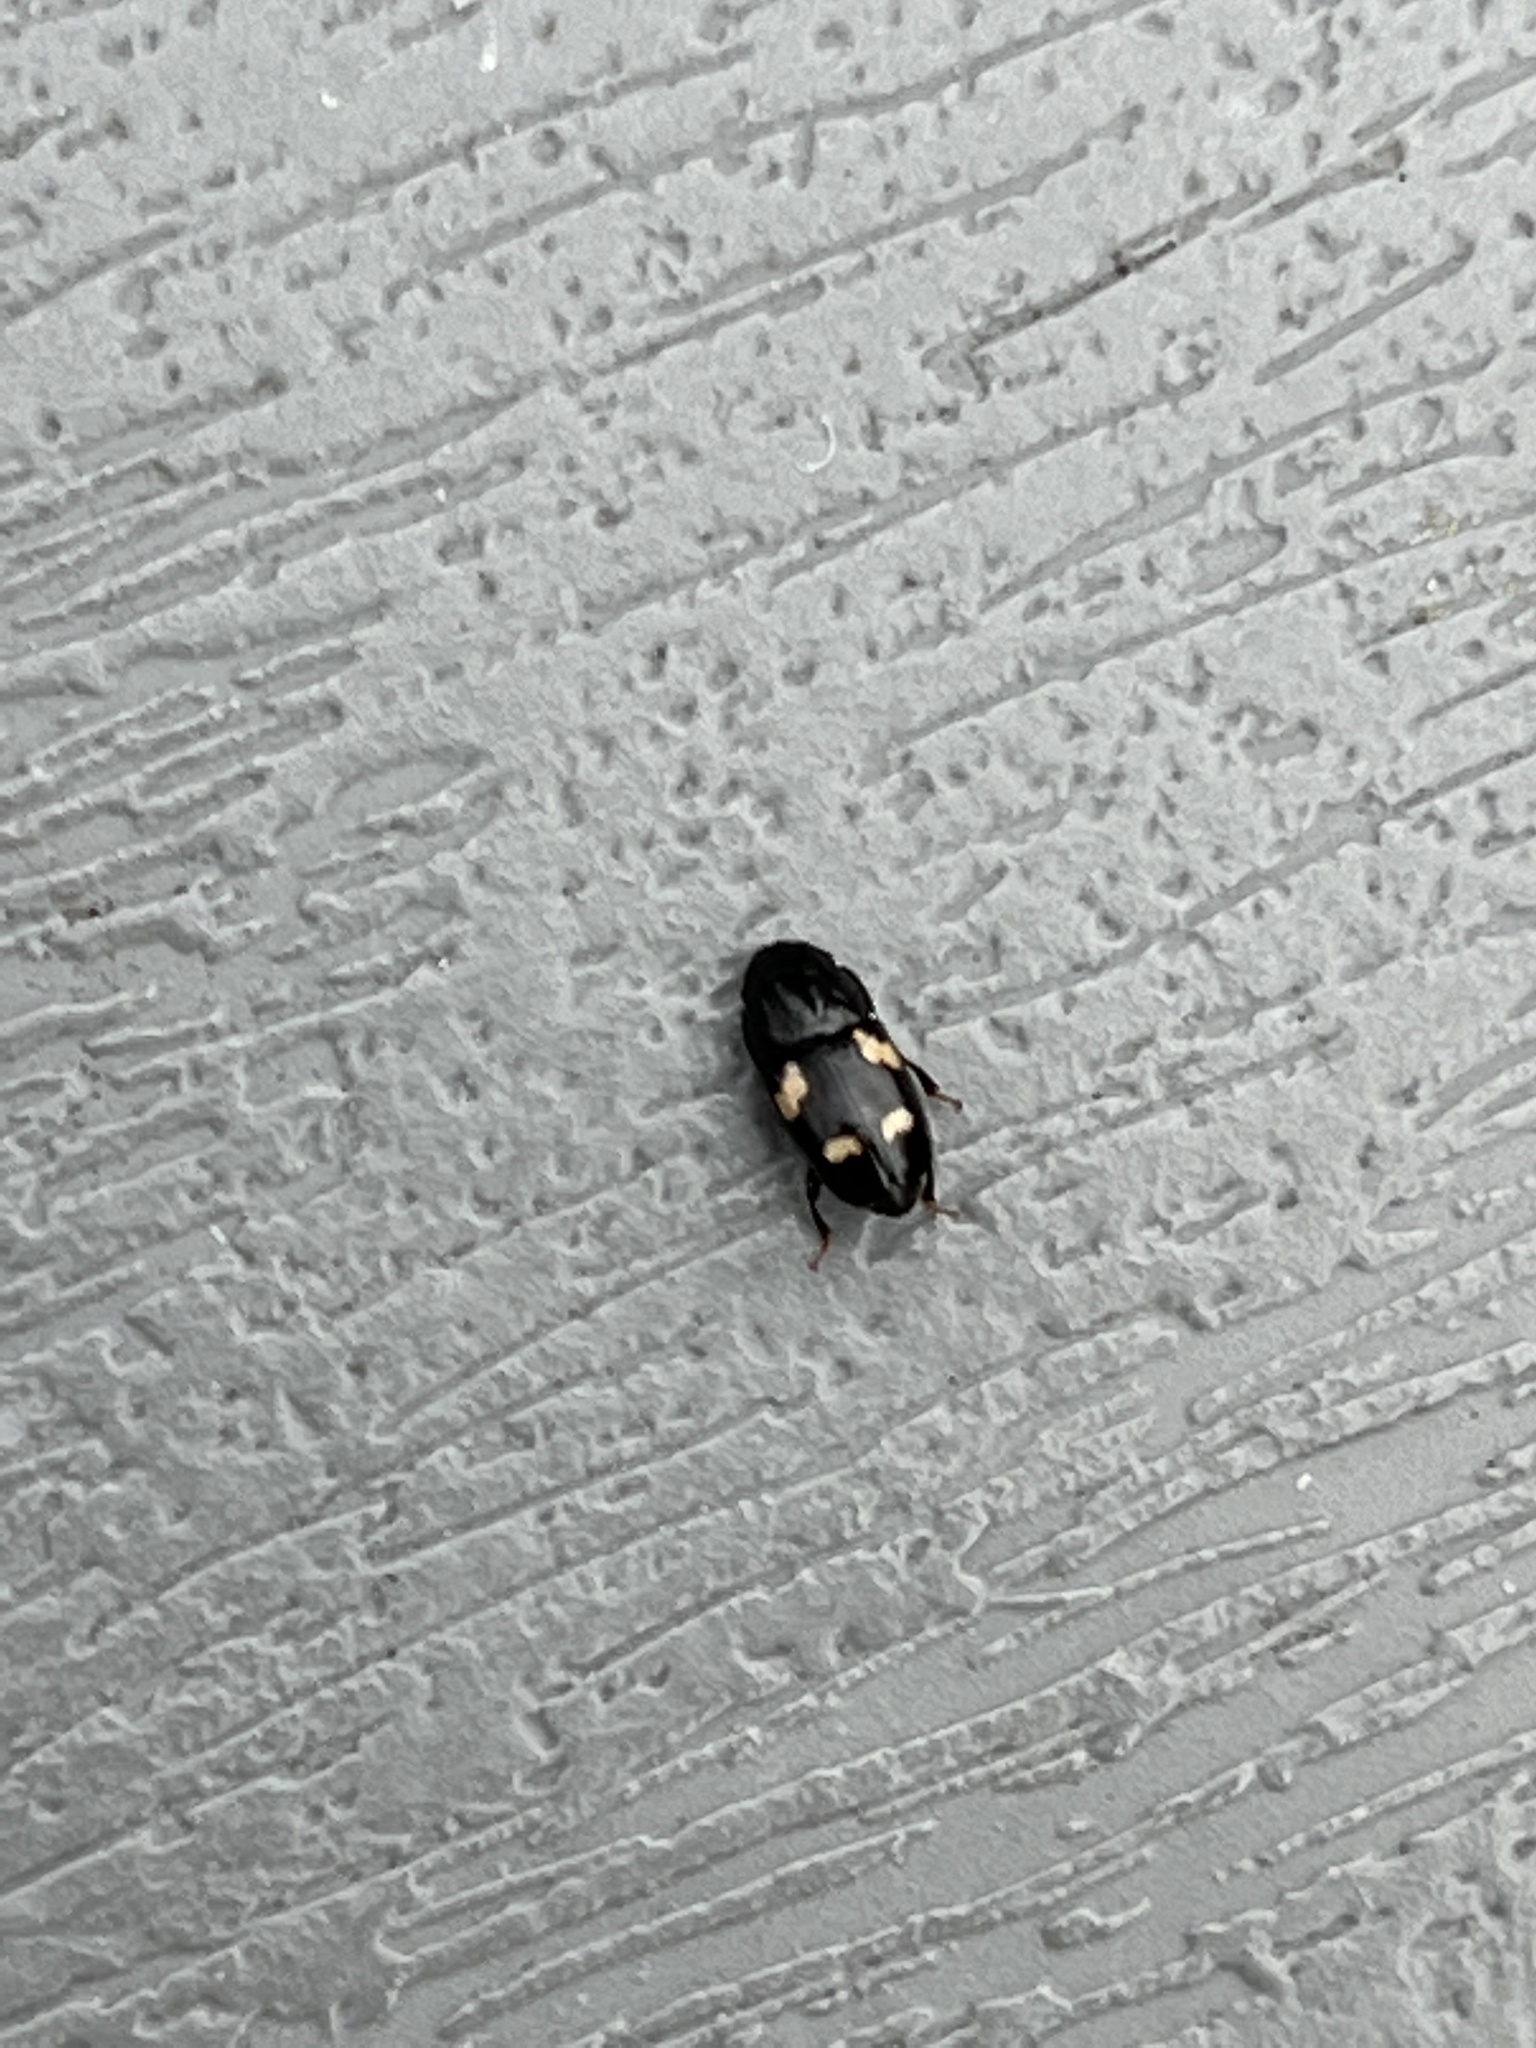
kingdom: Animalia
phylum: Arthropoda
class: Insecta
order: Coleoptera
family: Nitidulidae
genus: Glischrochilus
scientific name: Glischrochilus quadrisignatus
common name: Picnic beetle
